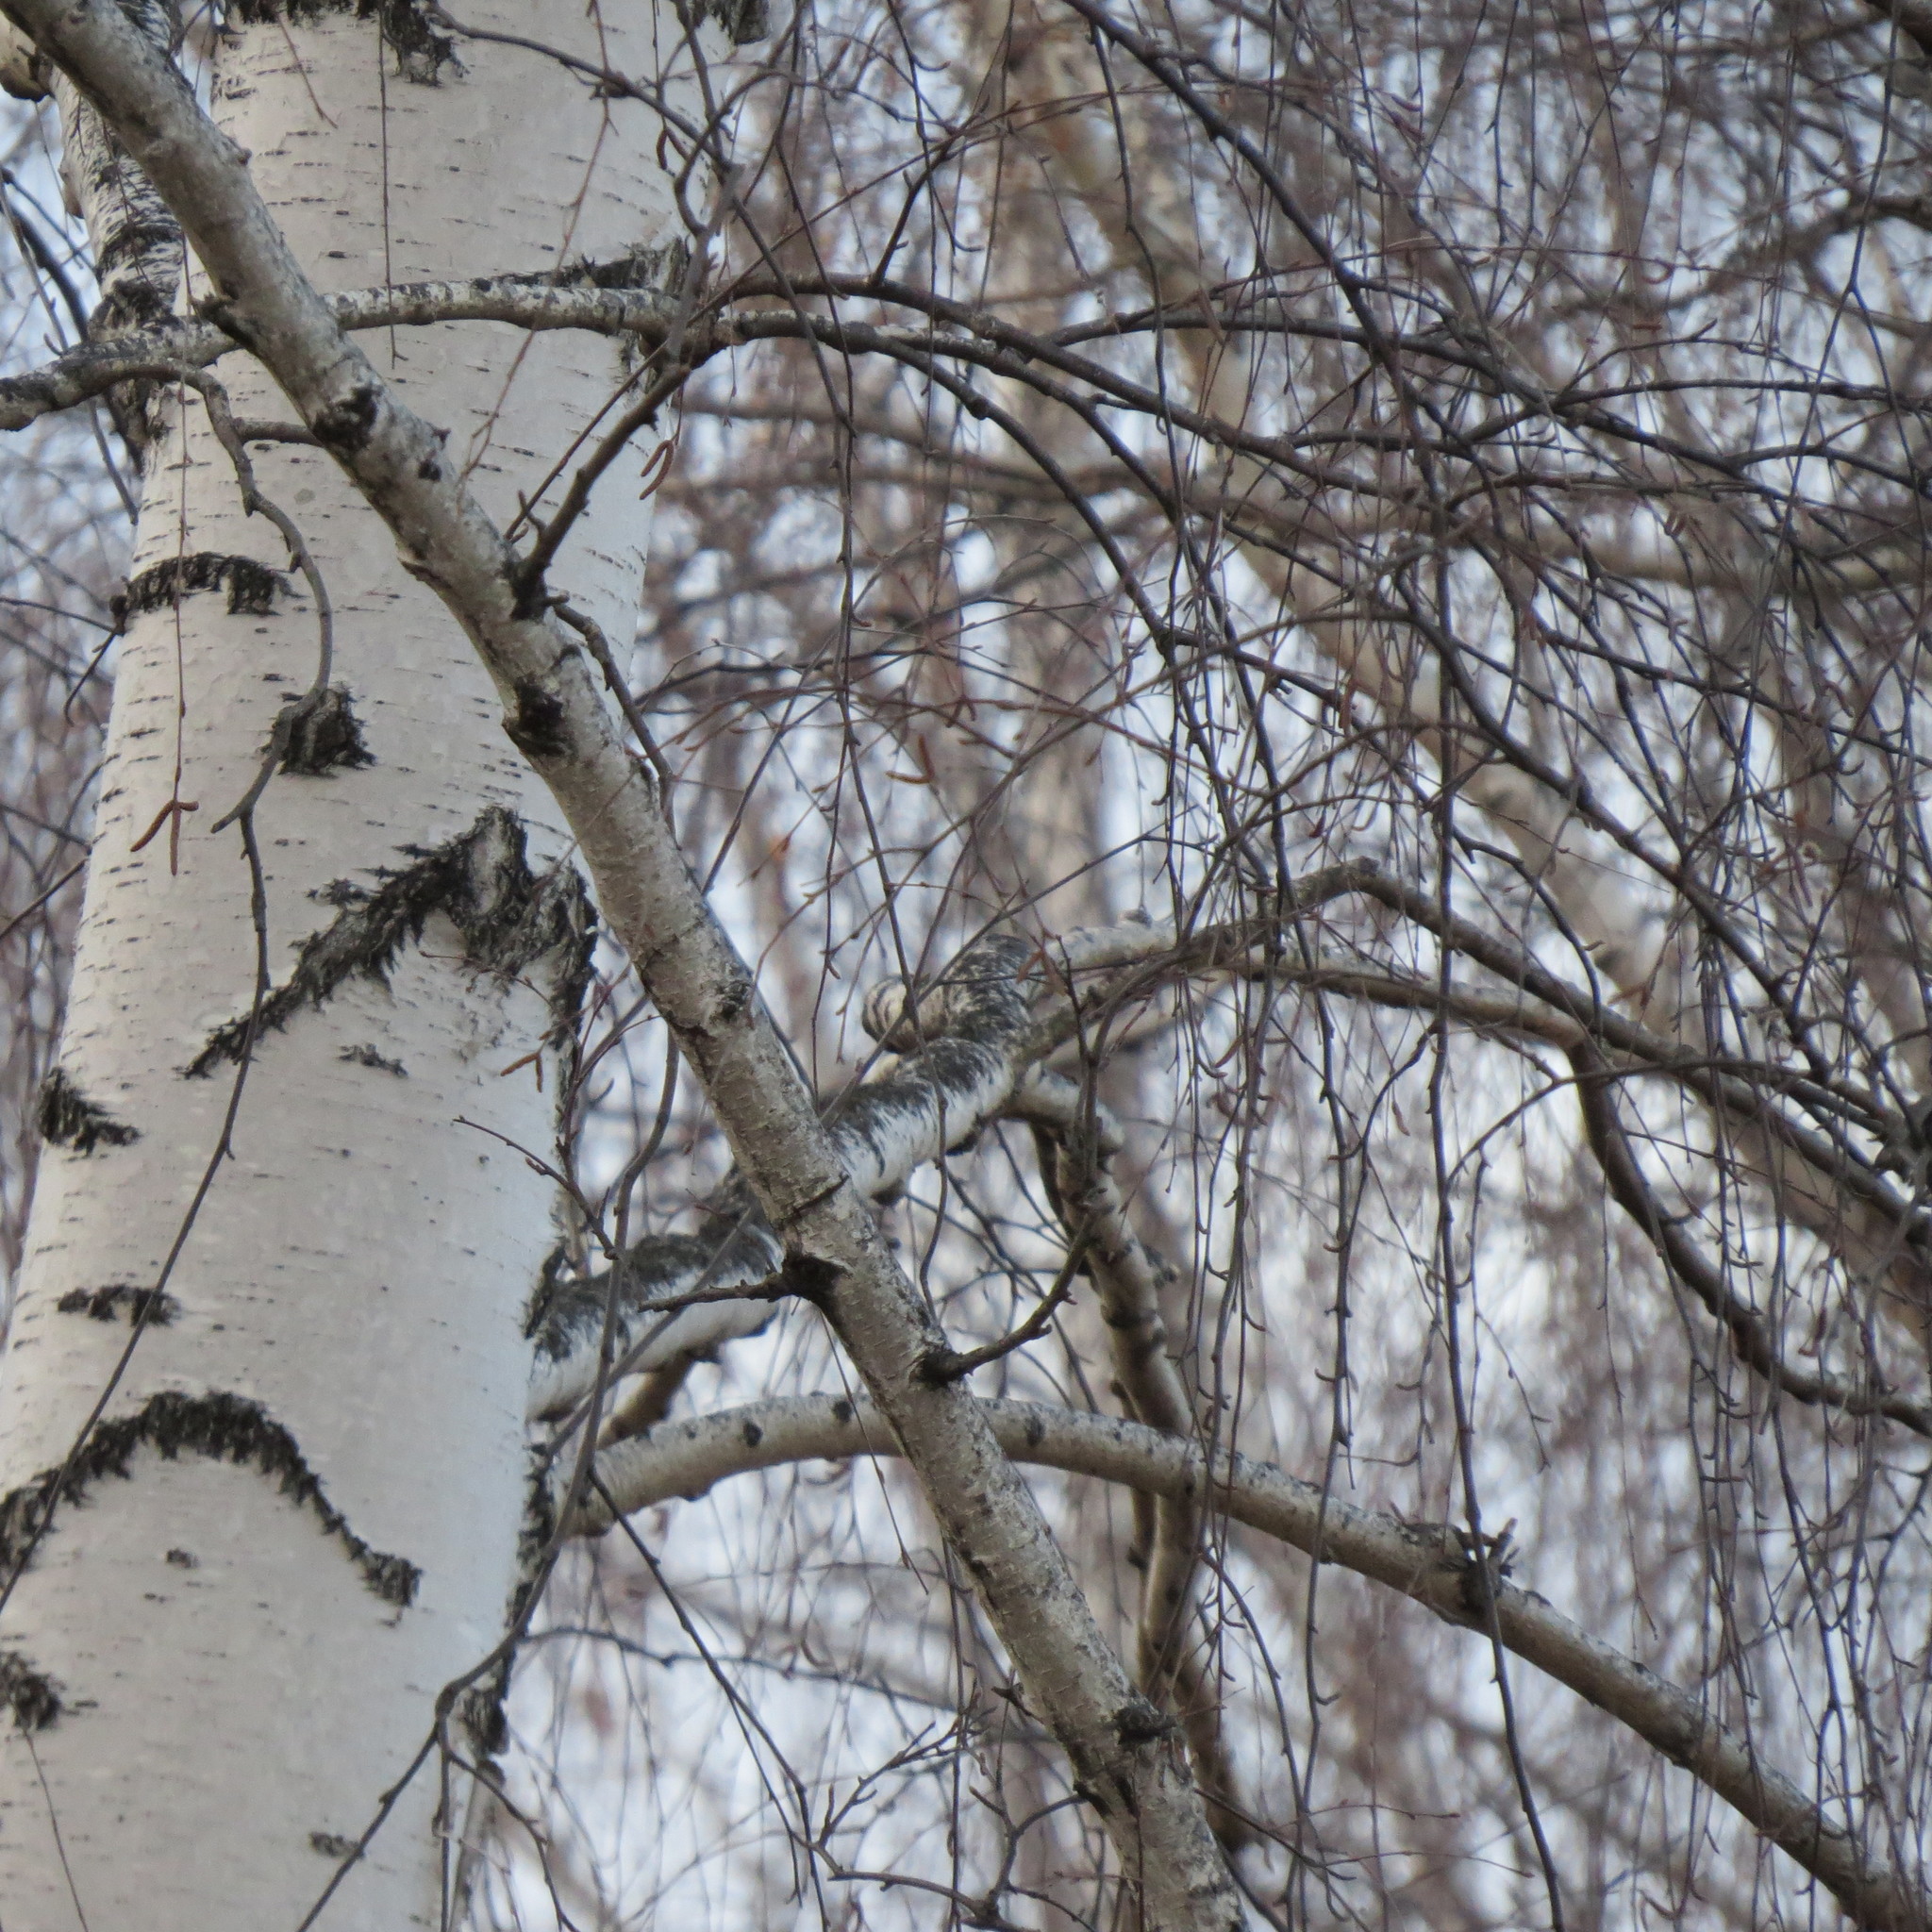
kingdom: Animalia
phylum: Chordata
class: Aves
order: Passeriformes
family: Turdidae
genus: Turdus
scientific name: Turdus philomelos
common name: Song thrush
